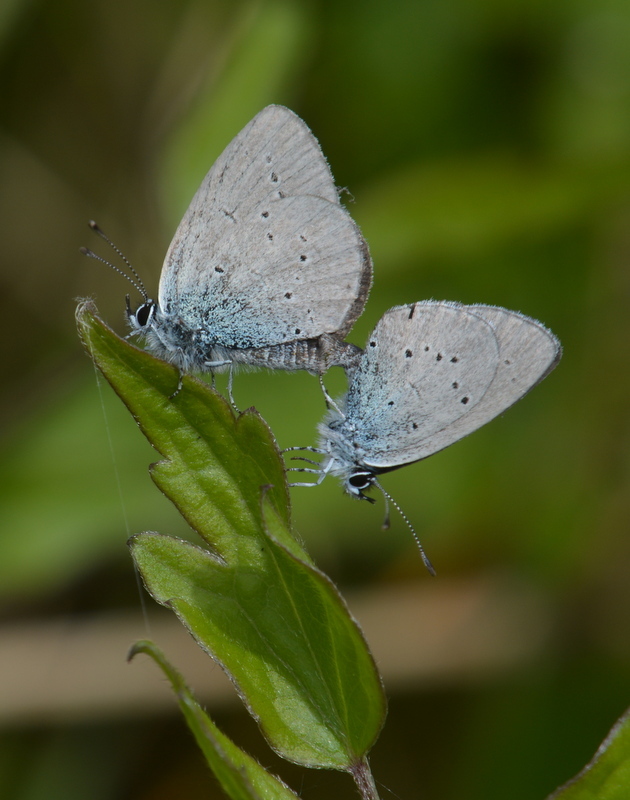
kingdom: Animalia
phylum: Arthropoda
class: Insecta
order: Lepidoptera
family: Lycaenidae
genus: Cupido
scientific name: Cupido minimus
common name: Small blue
